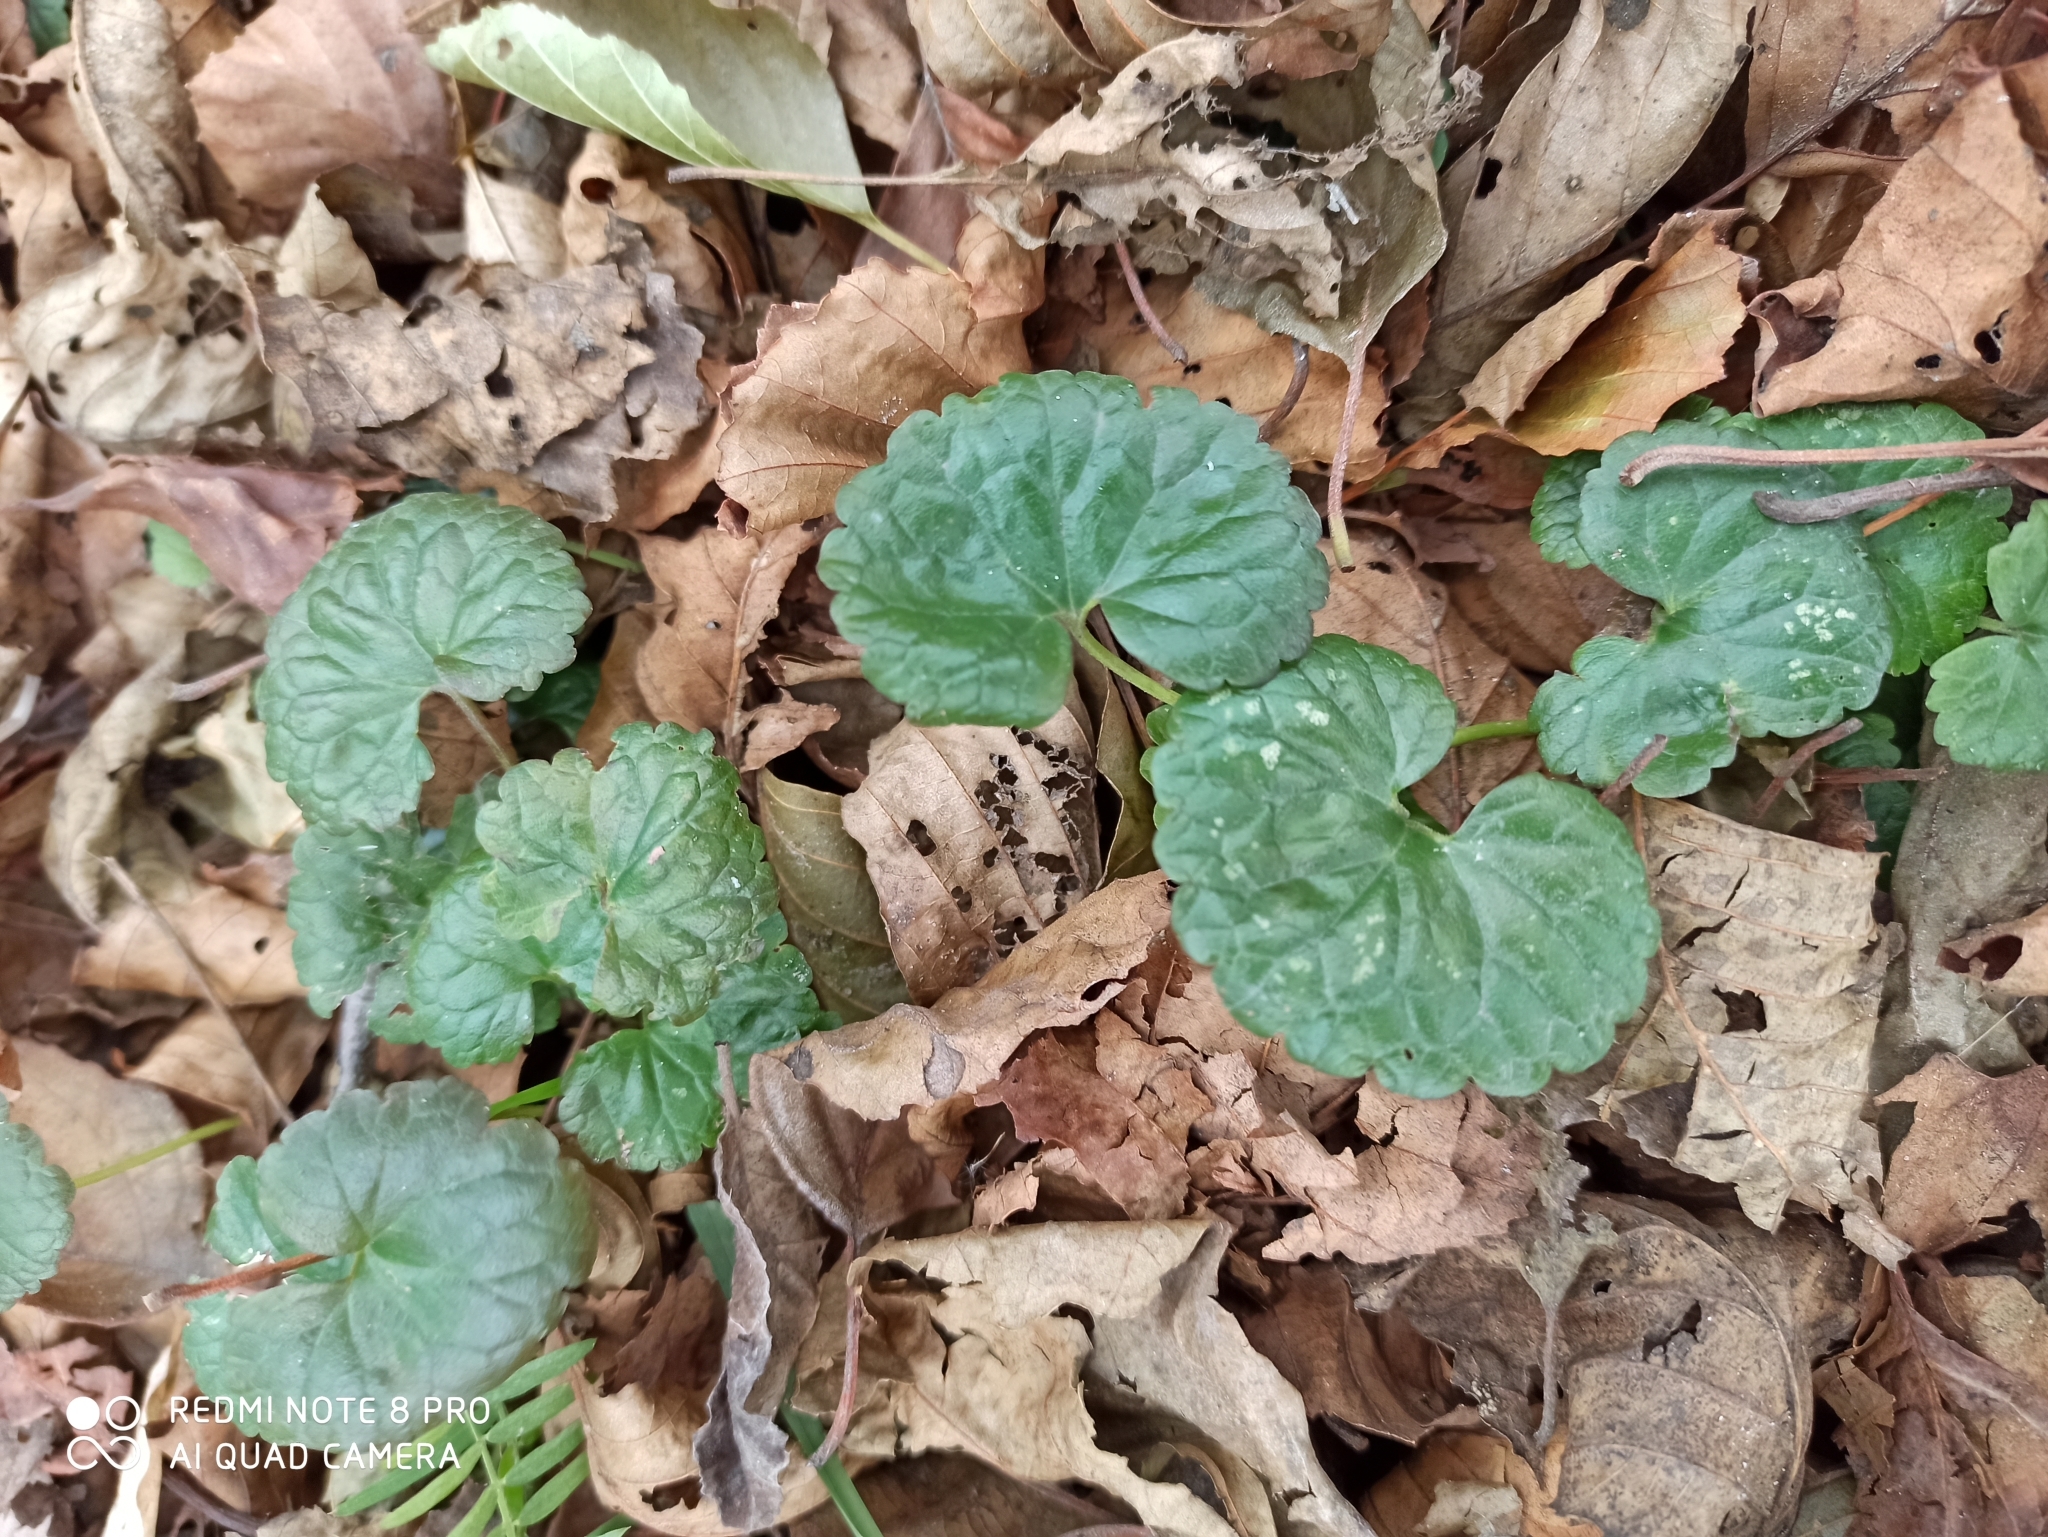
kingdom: Plantae
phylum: Tracheophyta
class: Magnoliopsida
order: Lamiales
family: Lamiaceae
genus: Glechoma
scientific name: Glechoma hederacea
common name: Ground ivy
